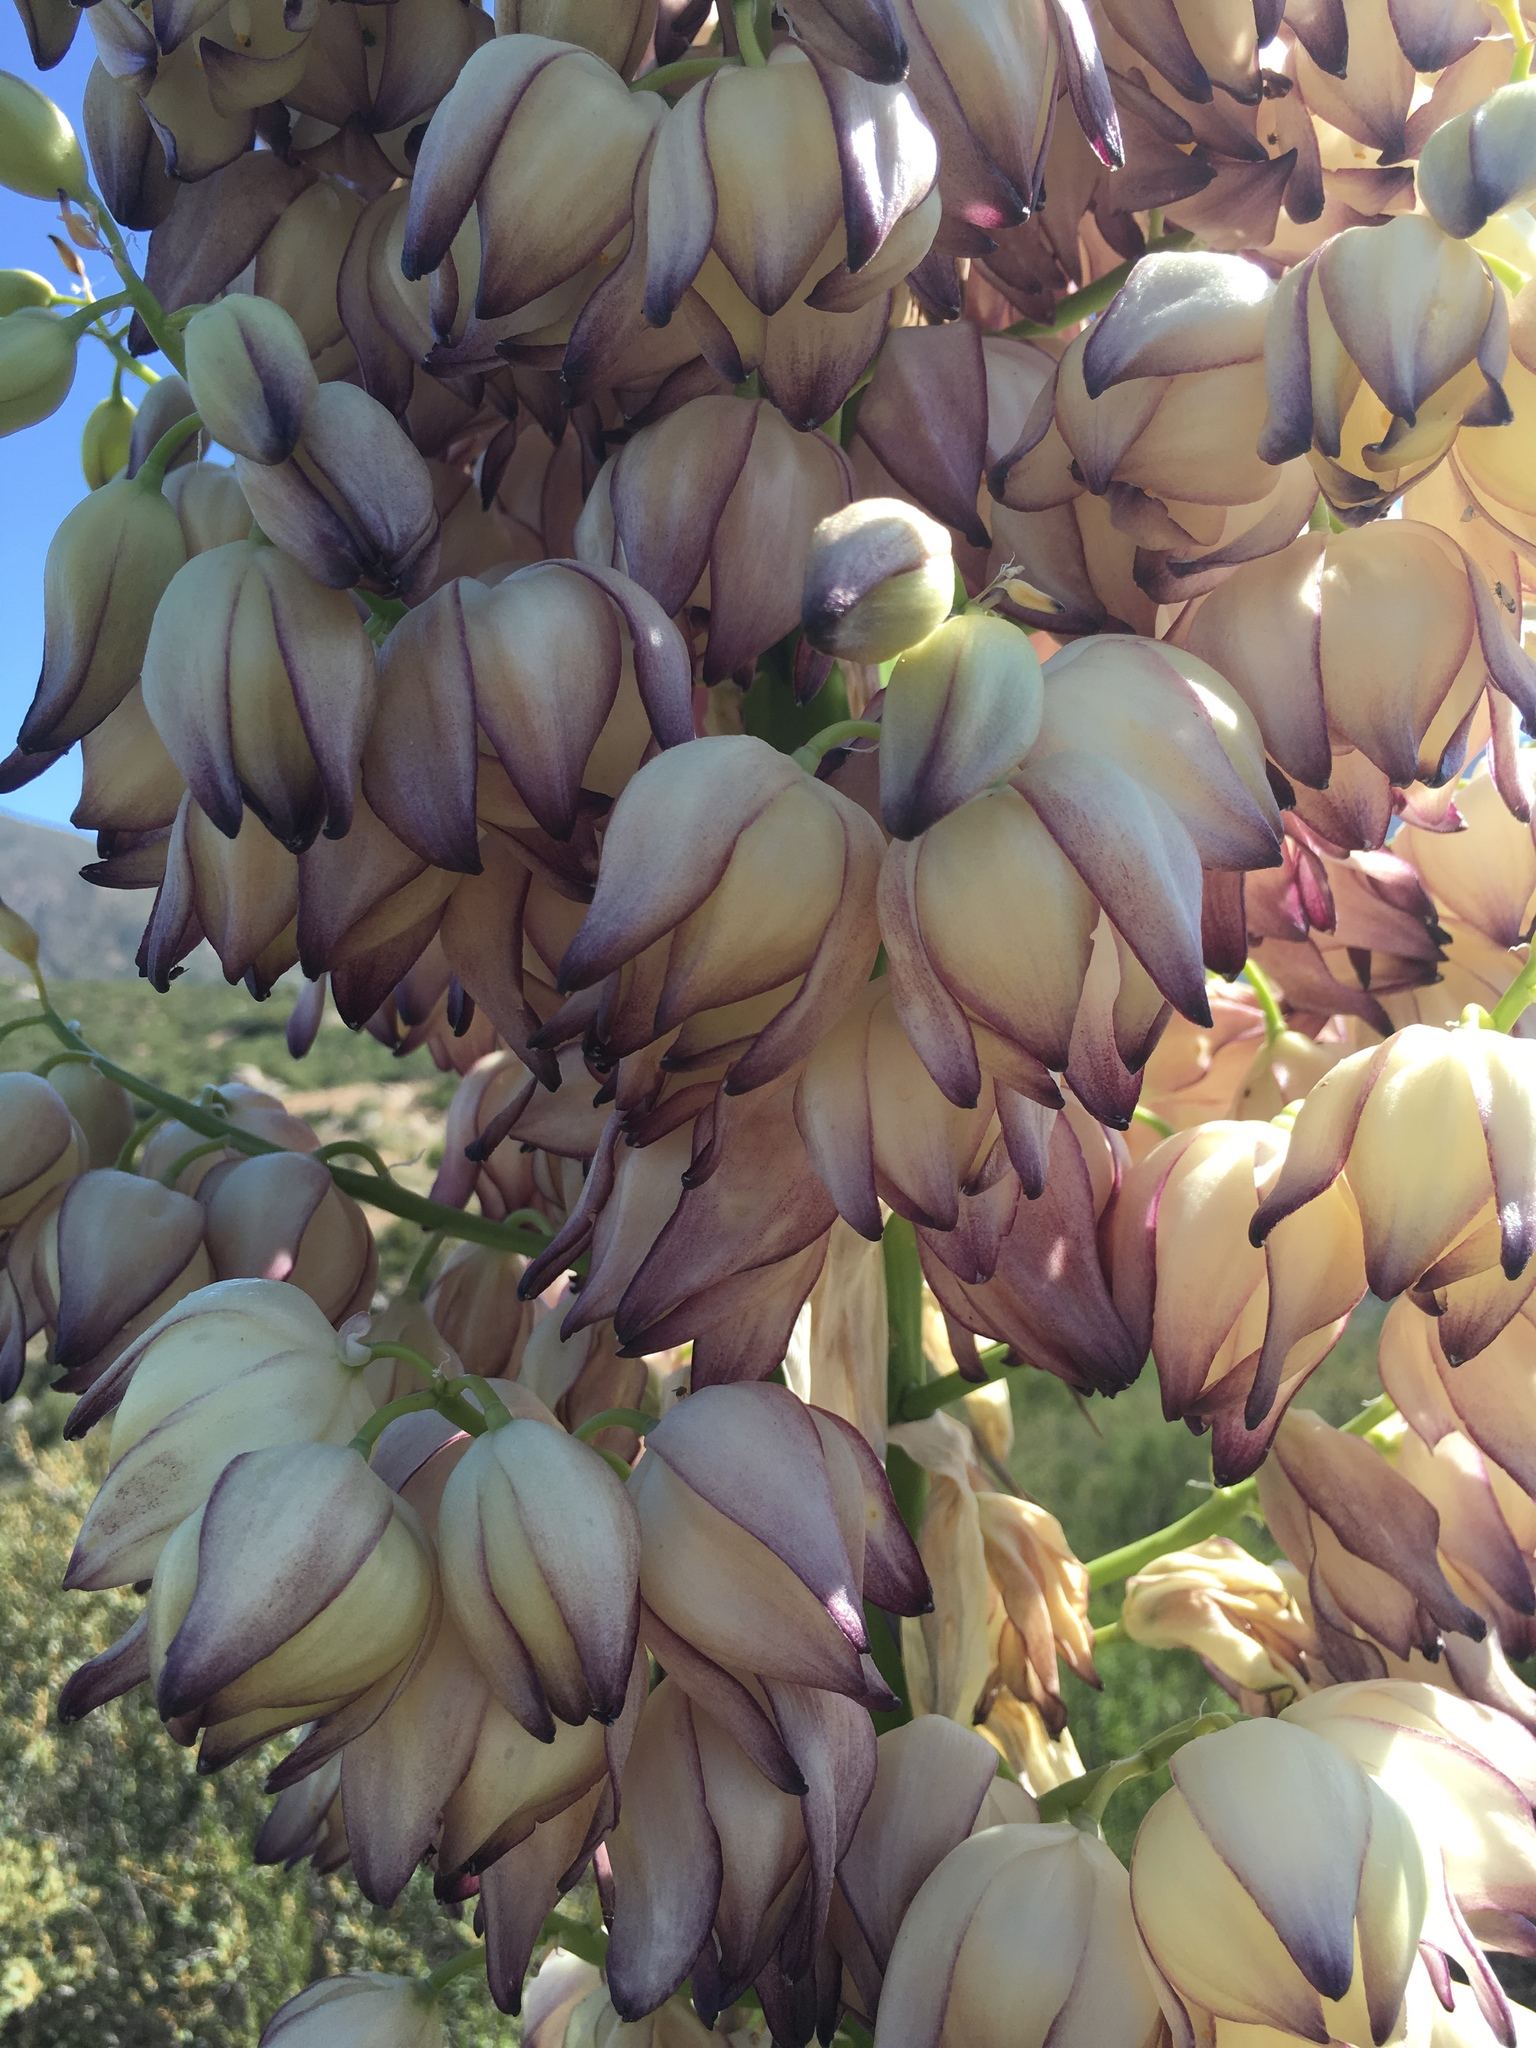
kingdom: Plantae
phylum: Tracheophyta
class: Liliopsida
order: Asparagales
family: Asparagaceae
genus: Hesperoyucca
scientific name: Hesperoyucca whipplei
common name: Our lord's-candle
